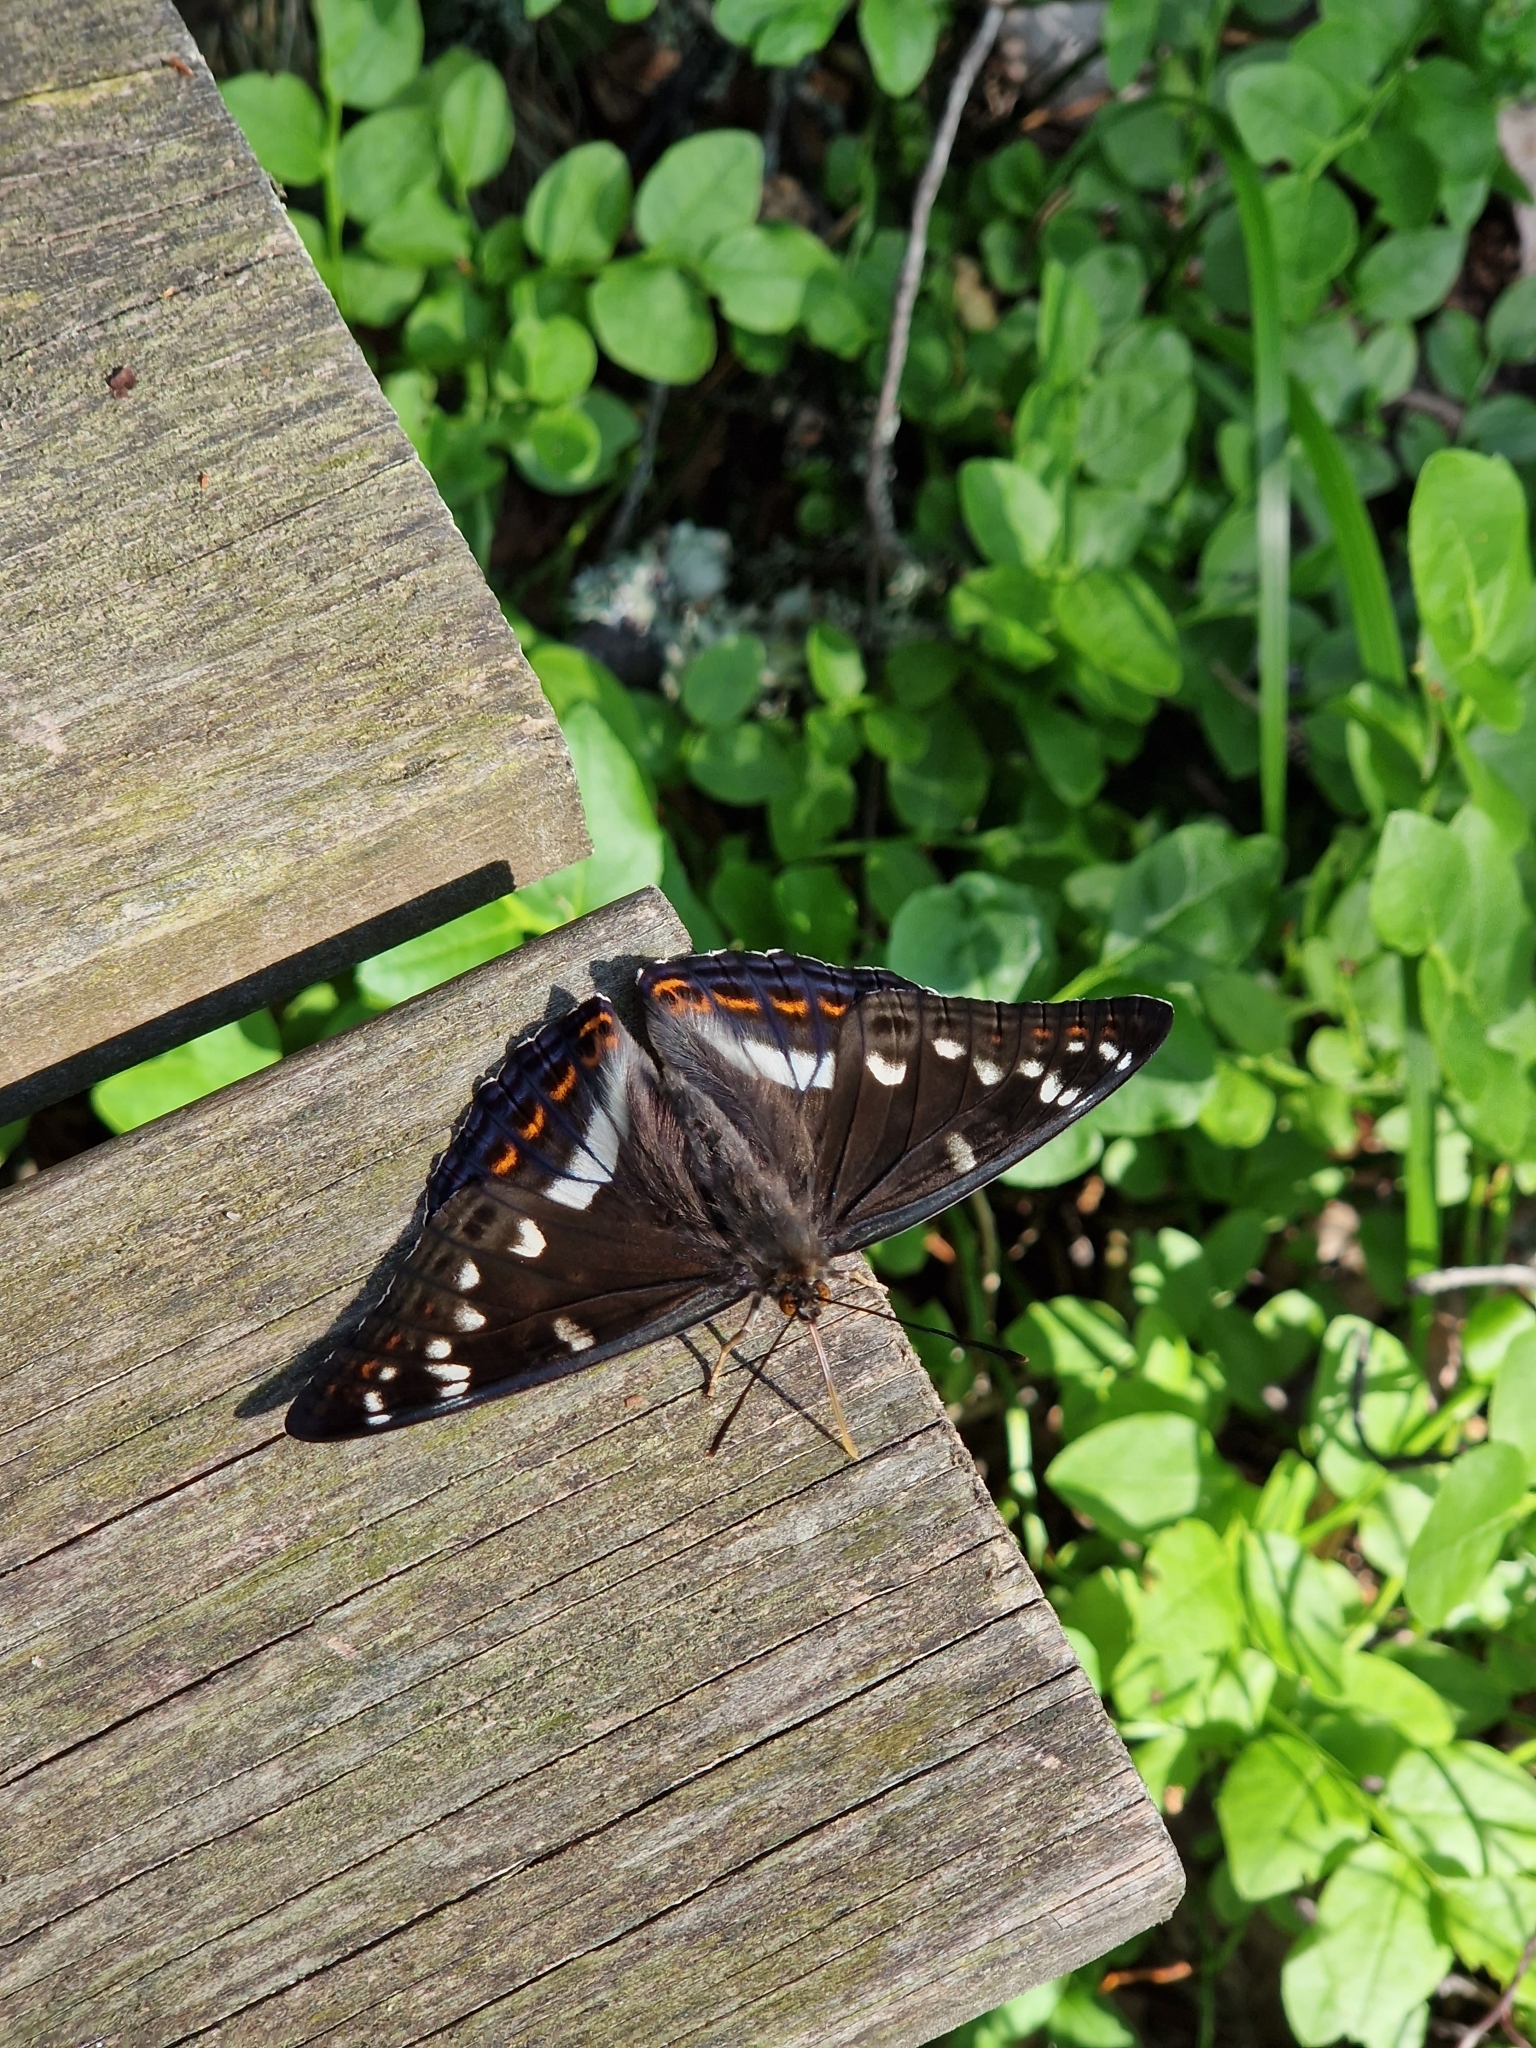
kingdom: Animalia
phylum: Arthropoda
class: Insecta
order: Lepidoptera
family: Nymphalidae
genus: Limenitis
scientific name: Limenitis populi
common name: Poplar admiral
